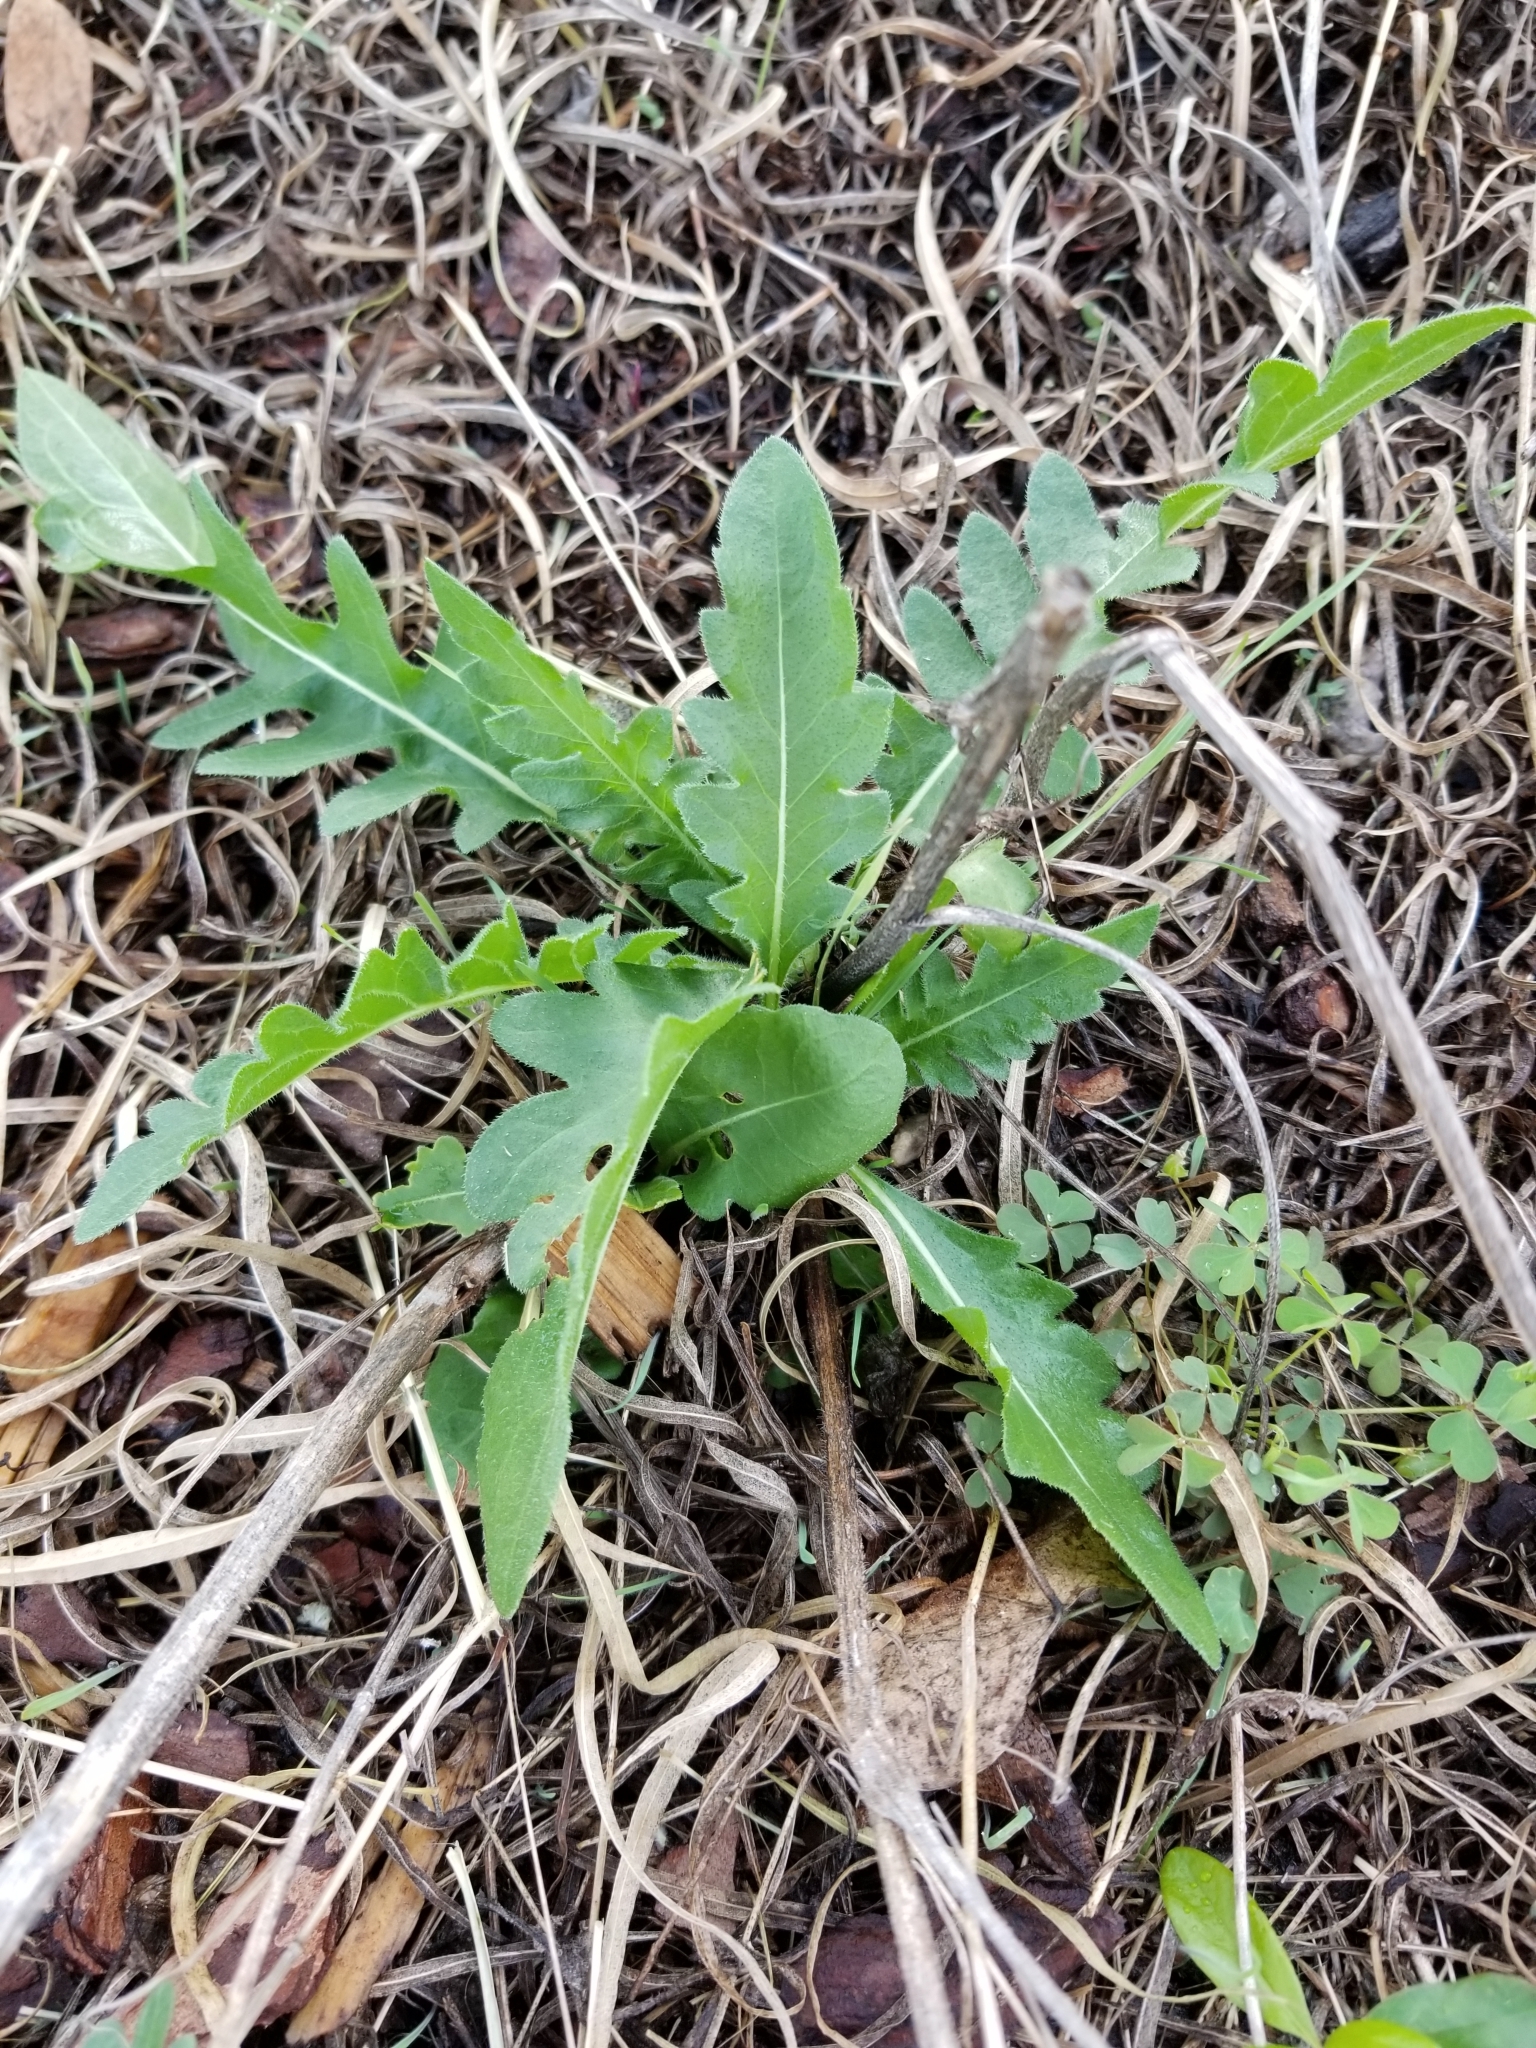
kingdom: Plantae
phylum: Tracheophyta
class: Magnoliopsida
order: Asterales
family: Asteraceae
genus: Engelmannia
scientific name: Engelmannia peristenia
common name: Engelmann's daisy
